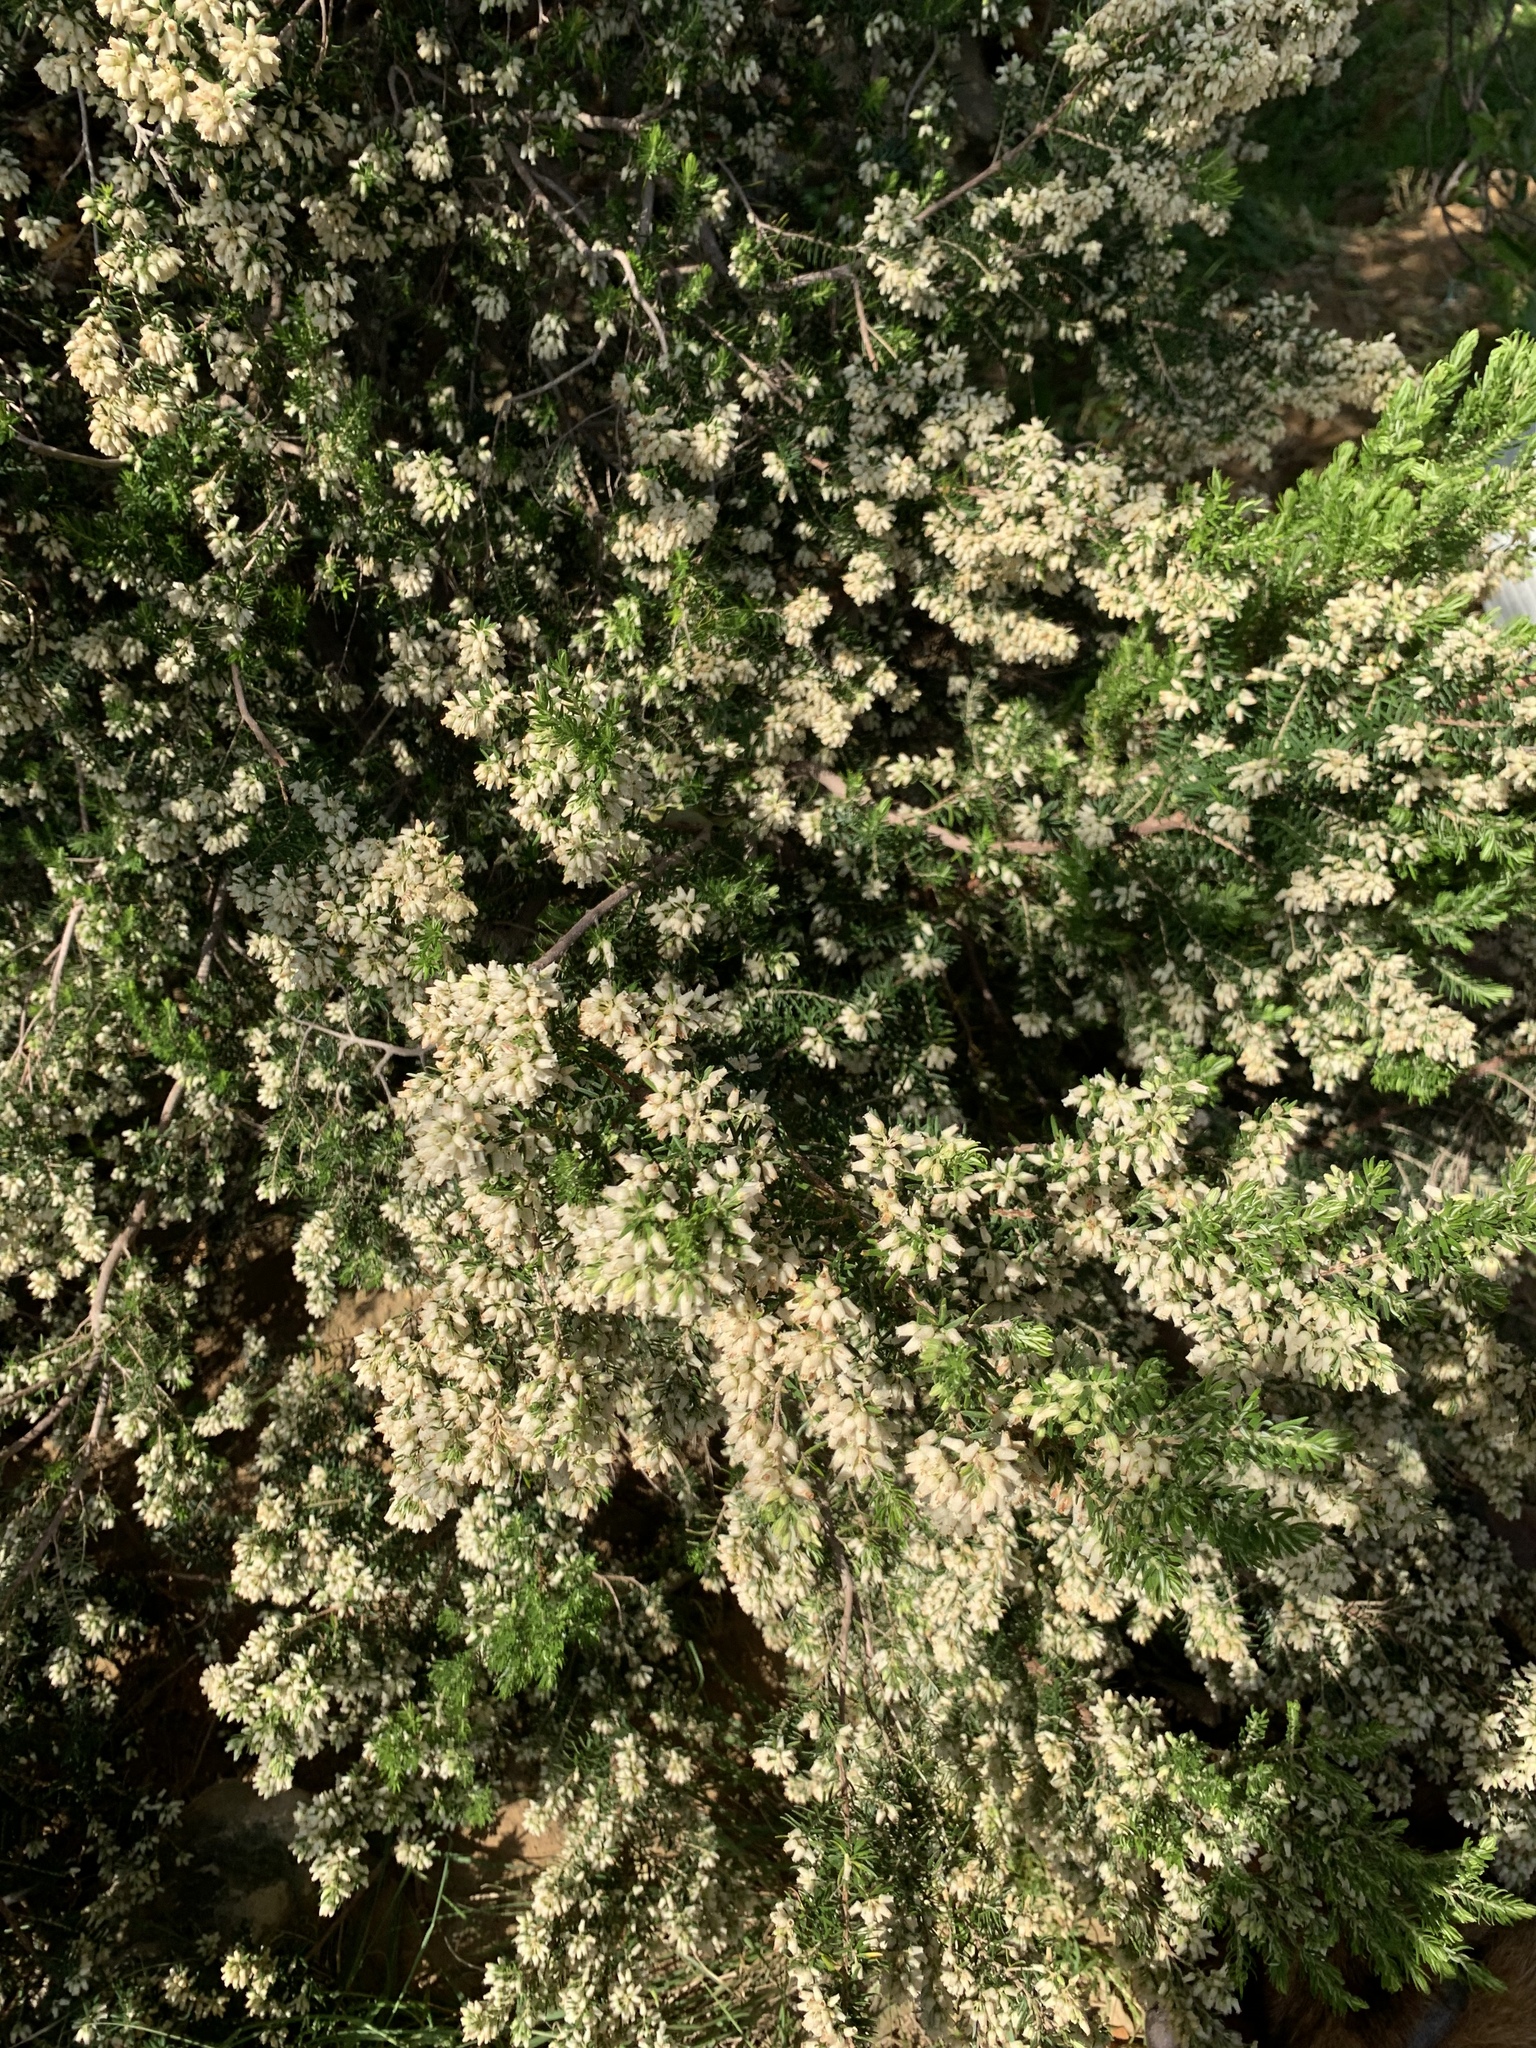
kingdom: Plantae
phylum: Tracheophyta
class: Magnoliopsida
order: Ericales
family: Ericaceae
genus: Erica
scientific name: Erica caffra
